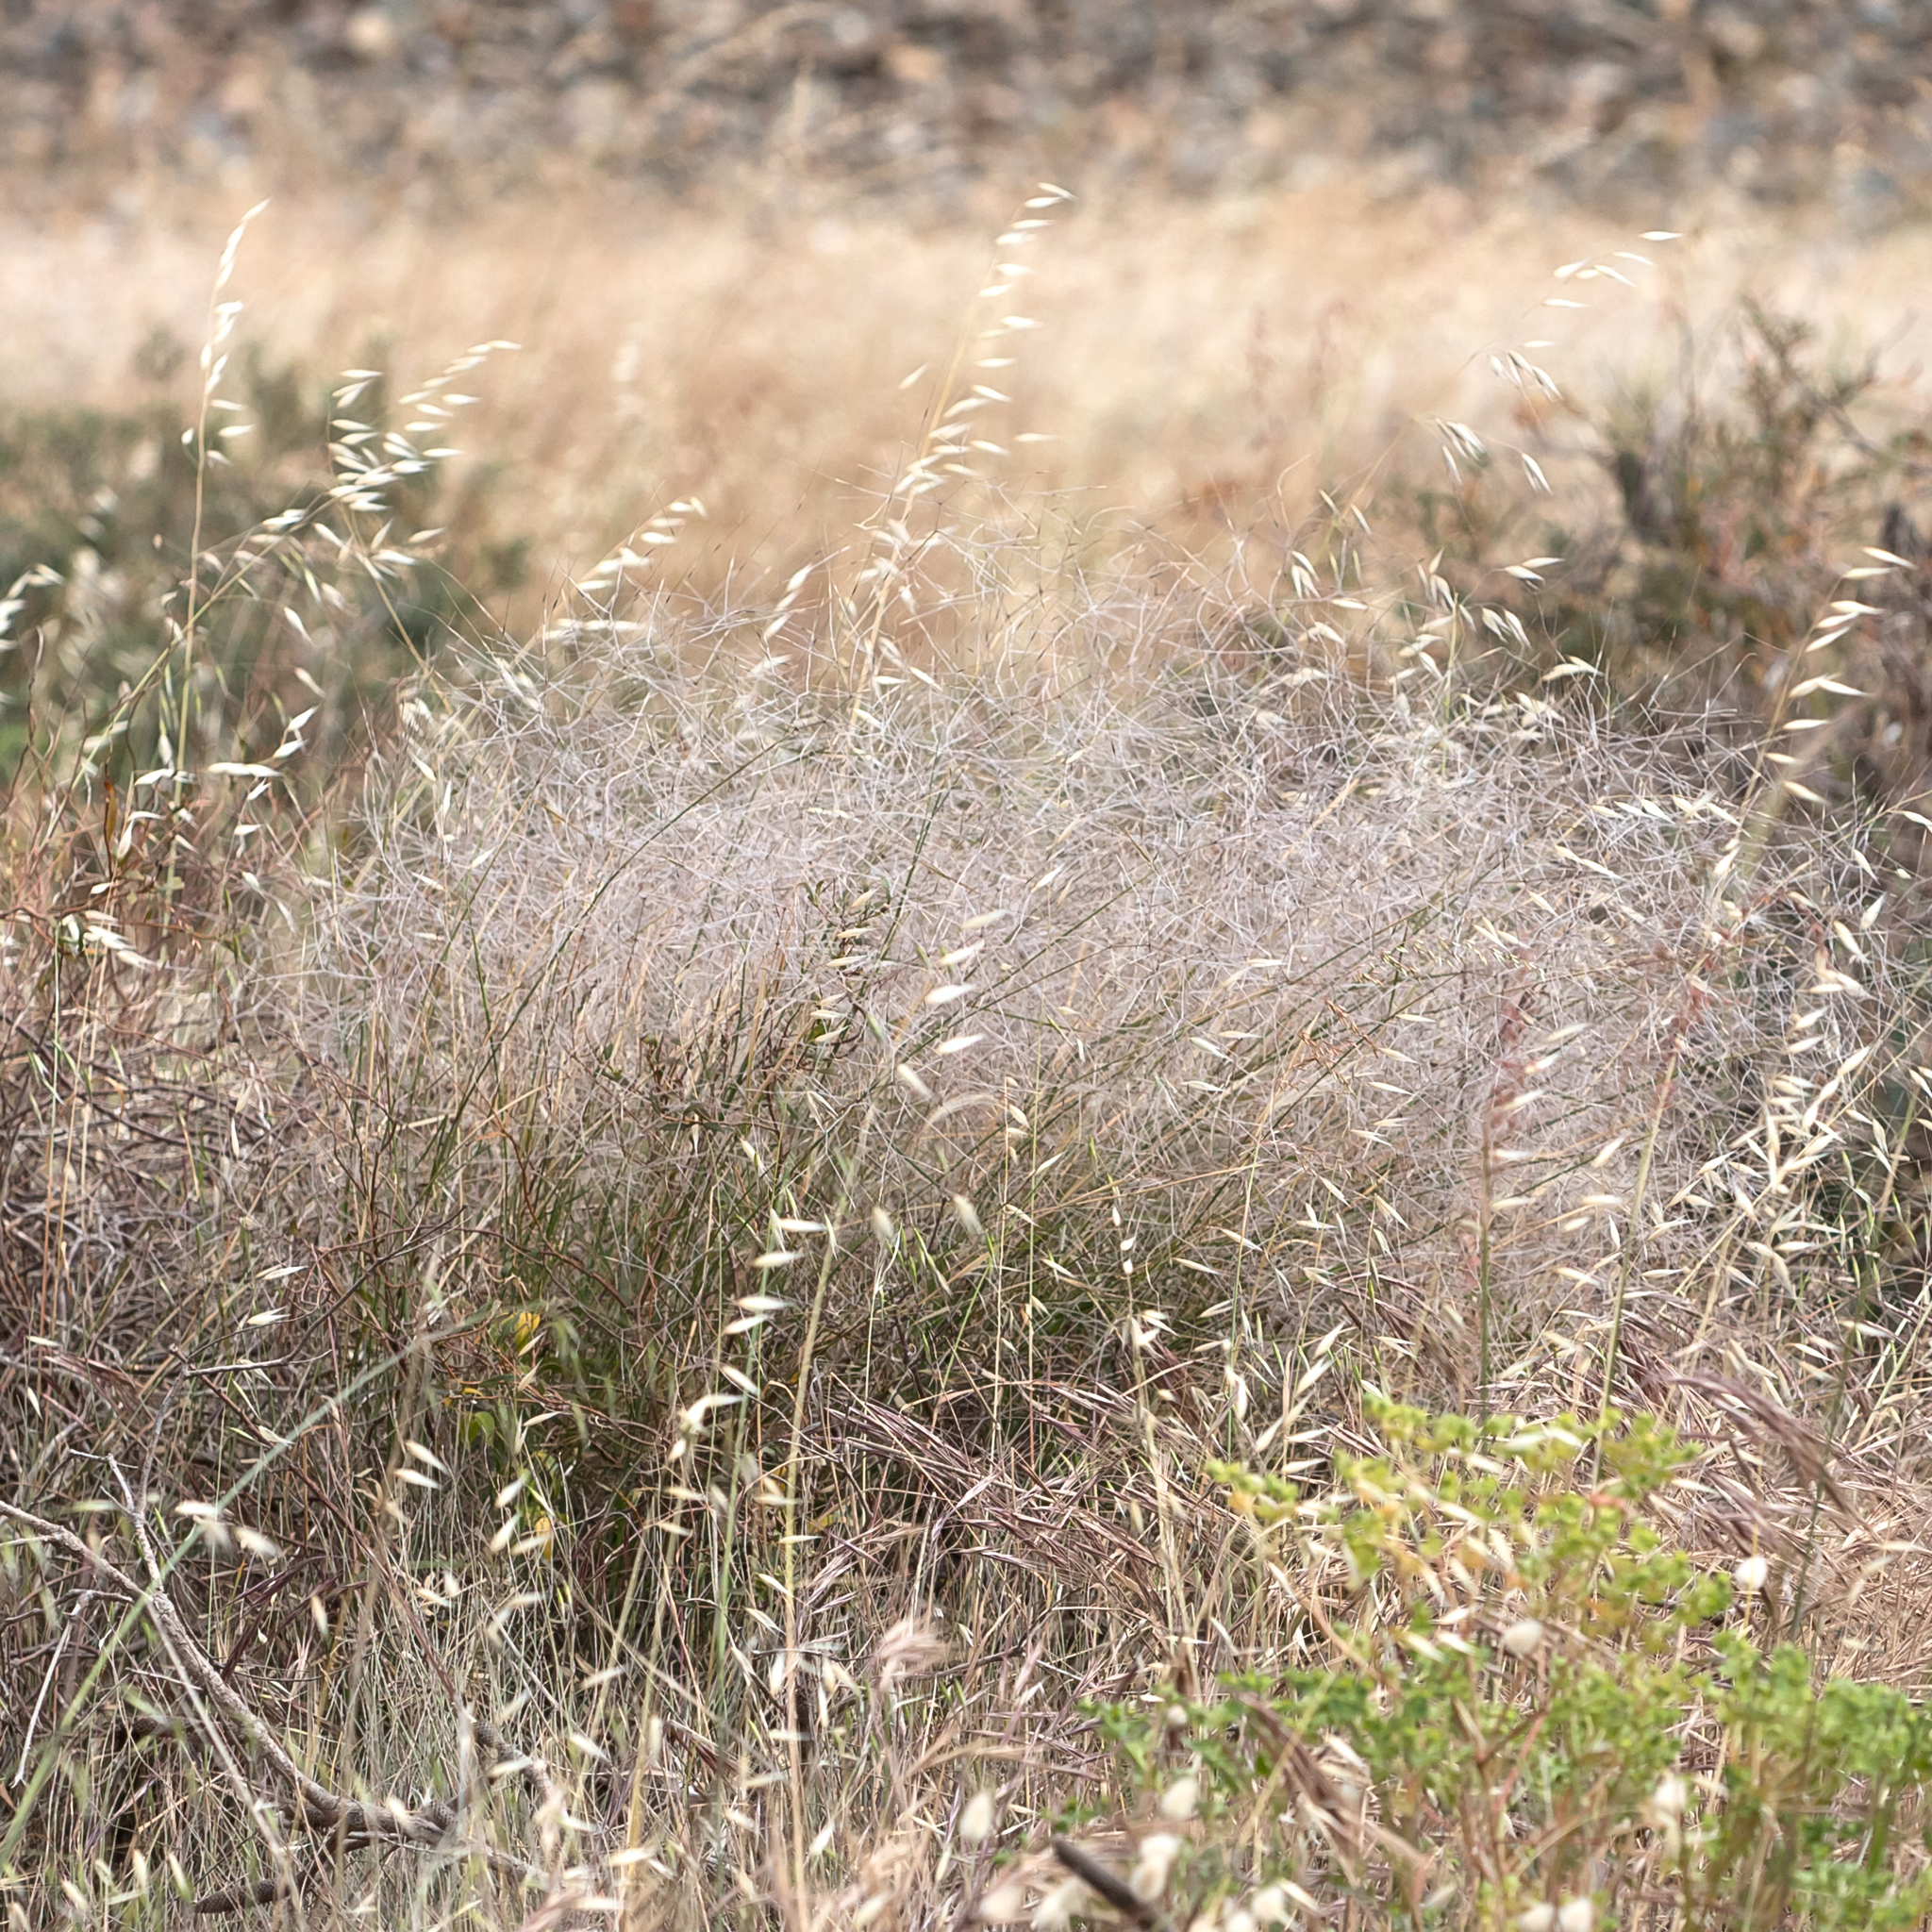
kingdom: Plantae
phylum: Tracheophyta
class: Liliopsida
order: Poales
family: Poaceae
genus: Austrostipa
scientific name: Austrostipa elegantissima
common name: Feather spear grass
